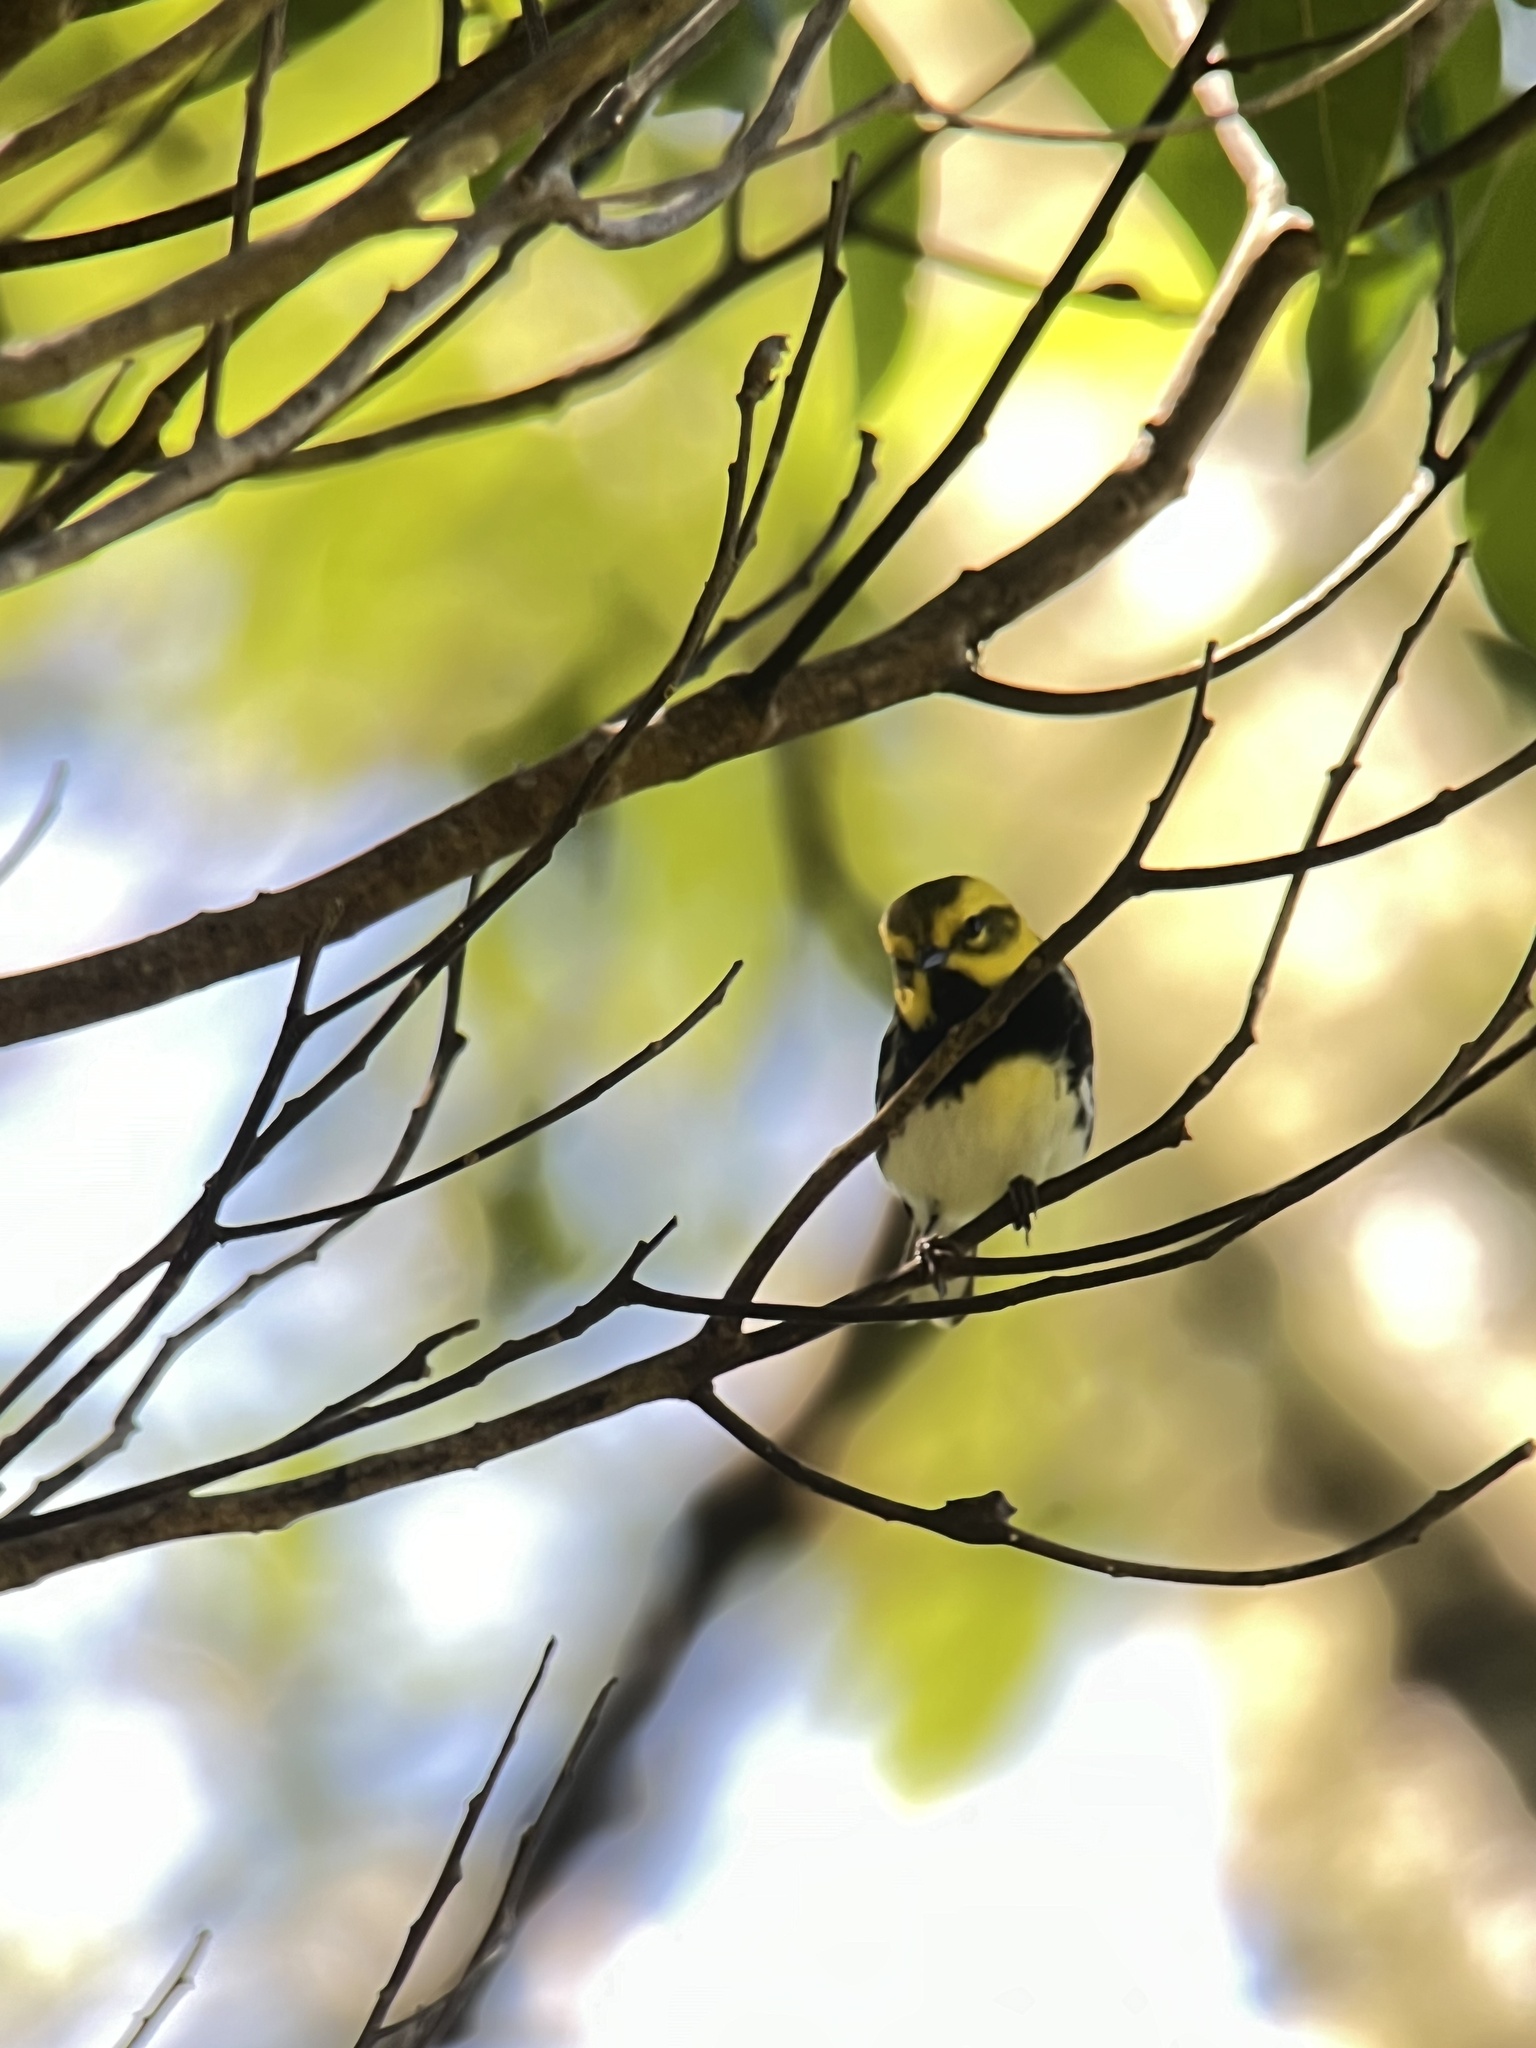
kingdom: Animalia
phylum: Chordata
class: Aves
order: Passeriformes
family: Parulidae
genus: Setophaga
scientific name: Setophaga virens
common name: Black-throated green warbler
